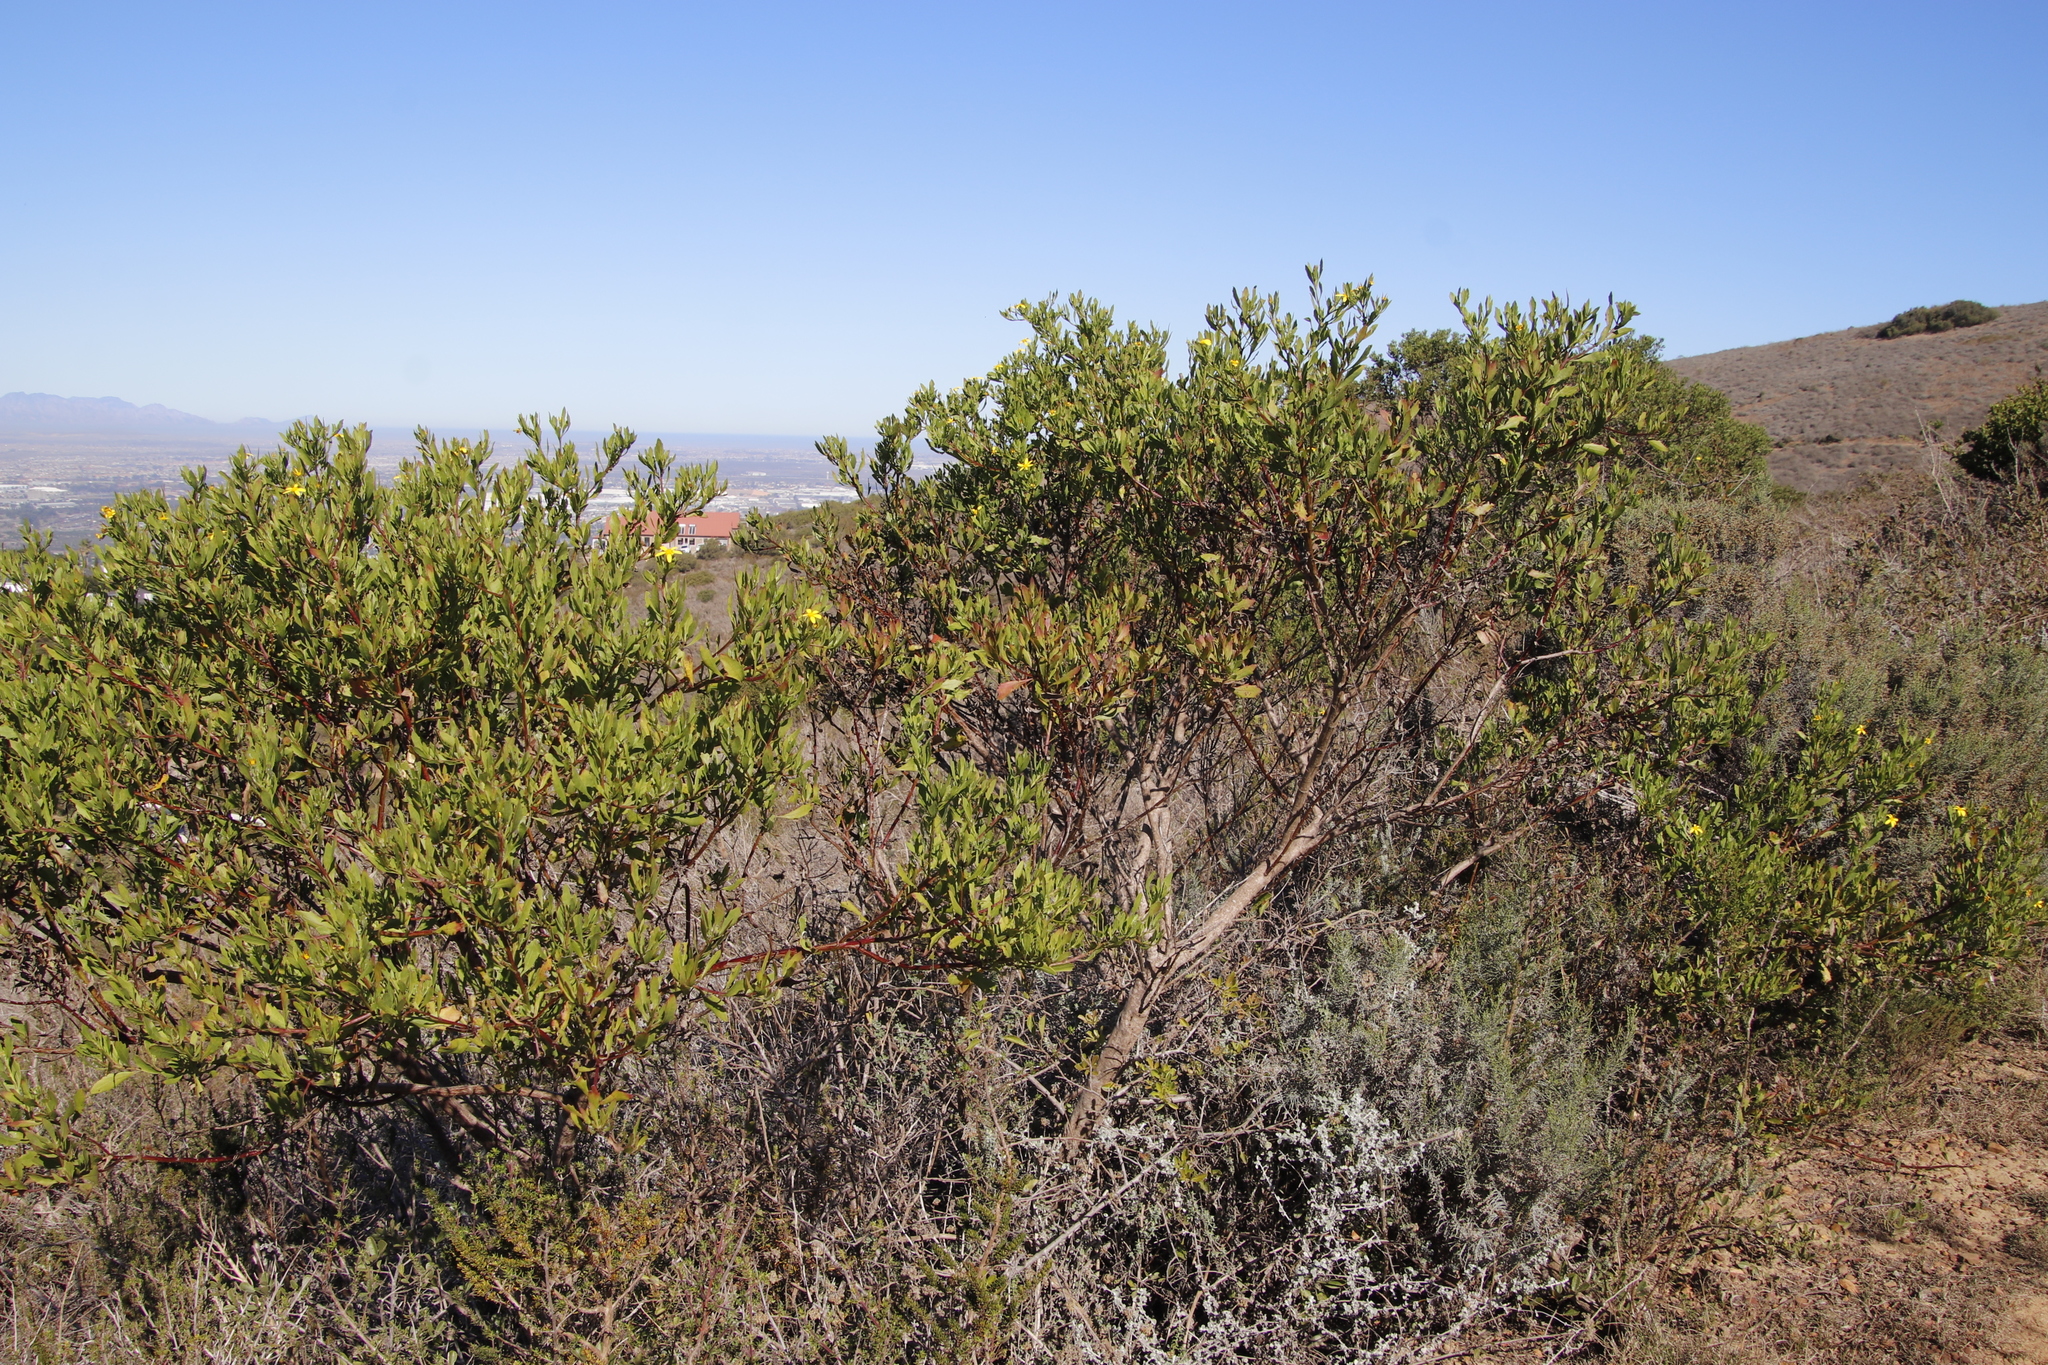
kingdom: Plantae
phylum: Tracheophyta
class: Magnoliopsida
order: Asterales
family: Asteraceae
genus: Osteospermum
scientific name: Osteospermum moniliferum
